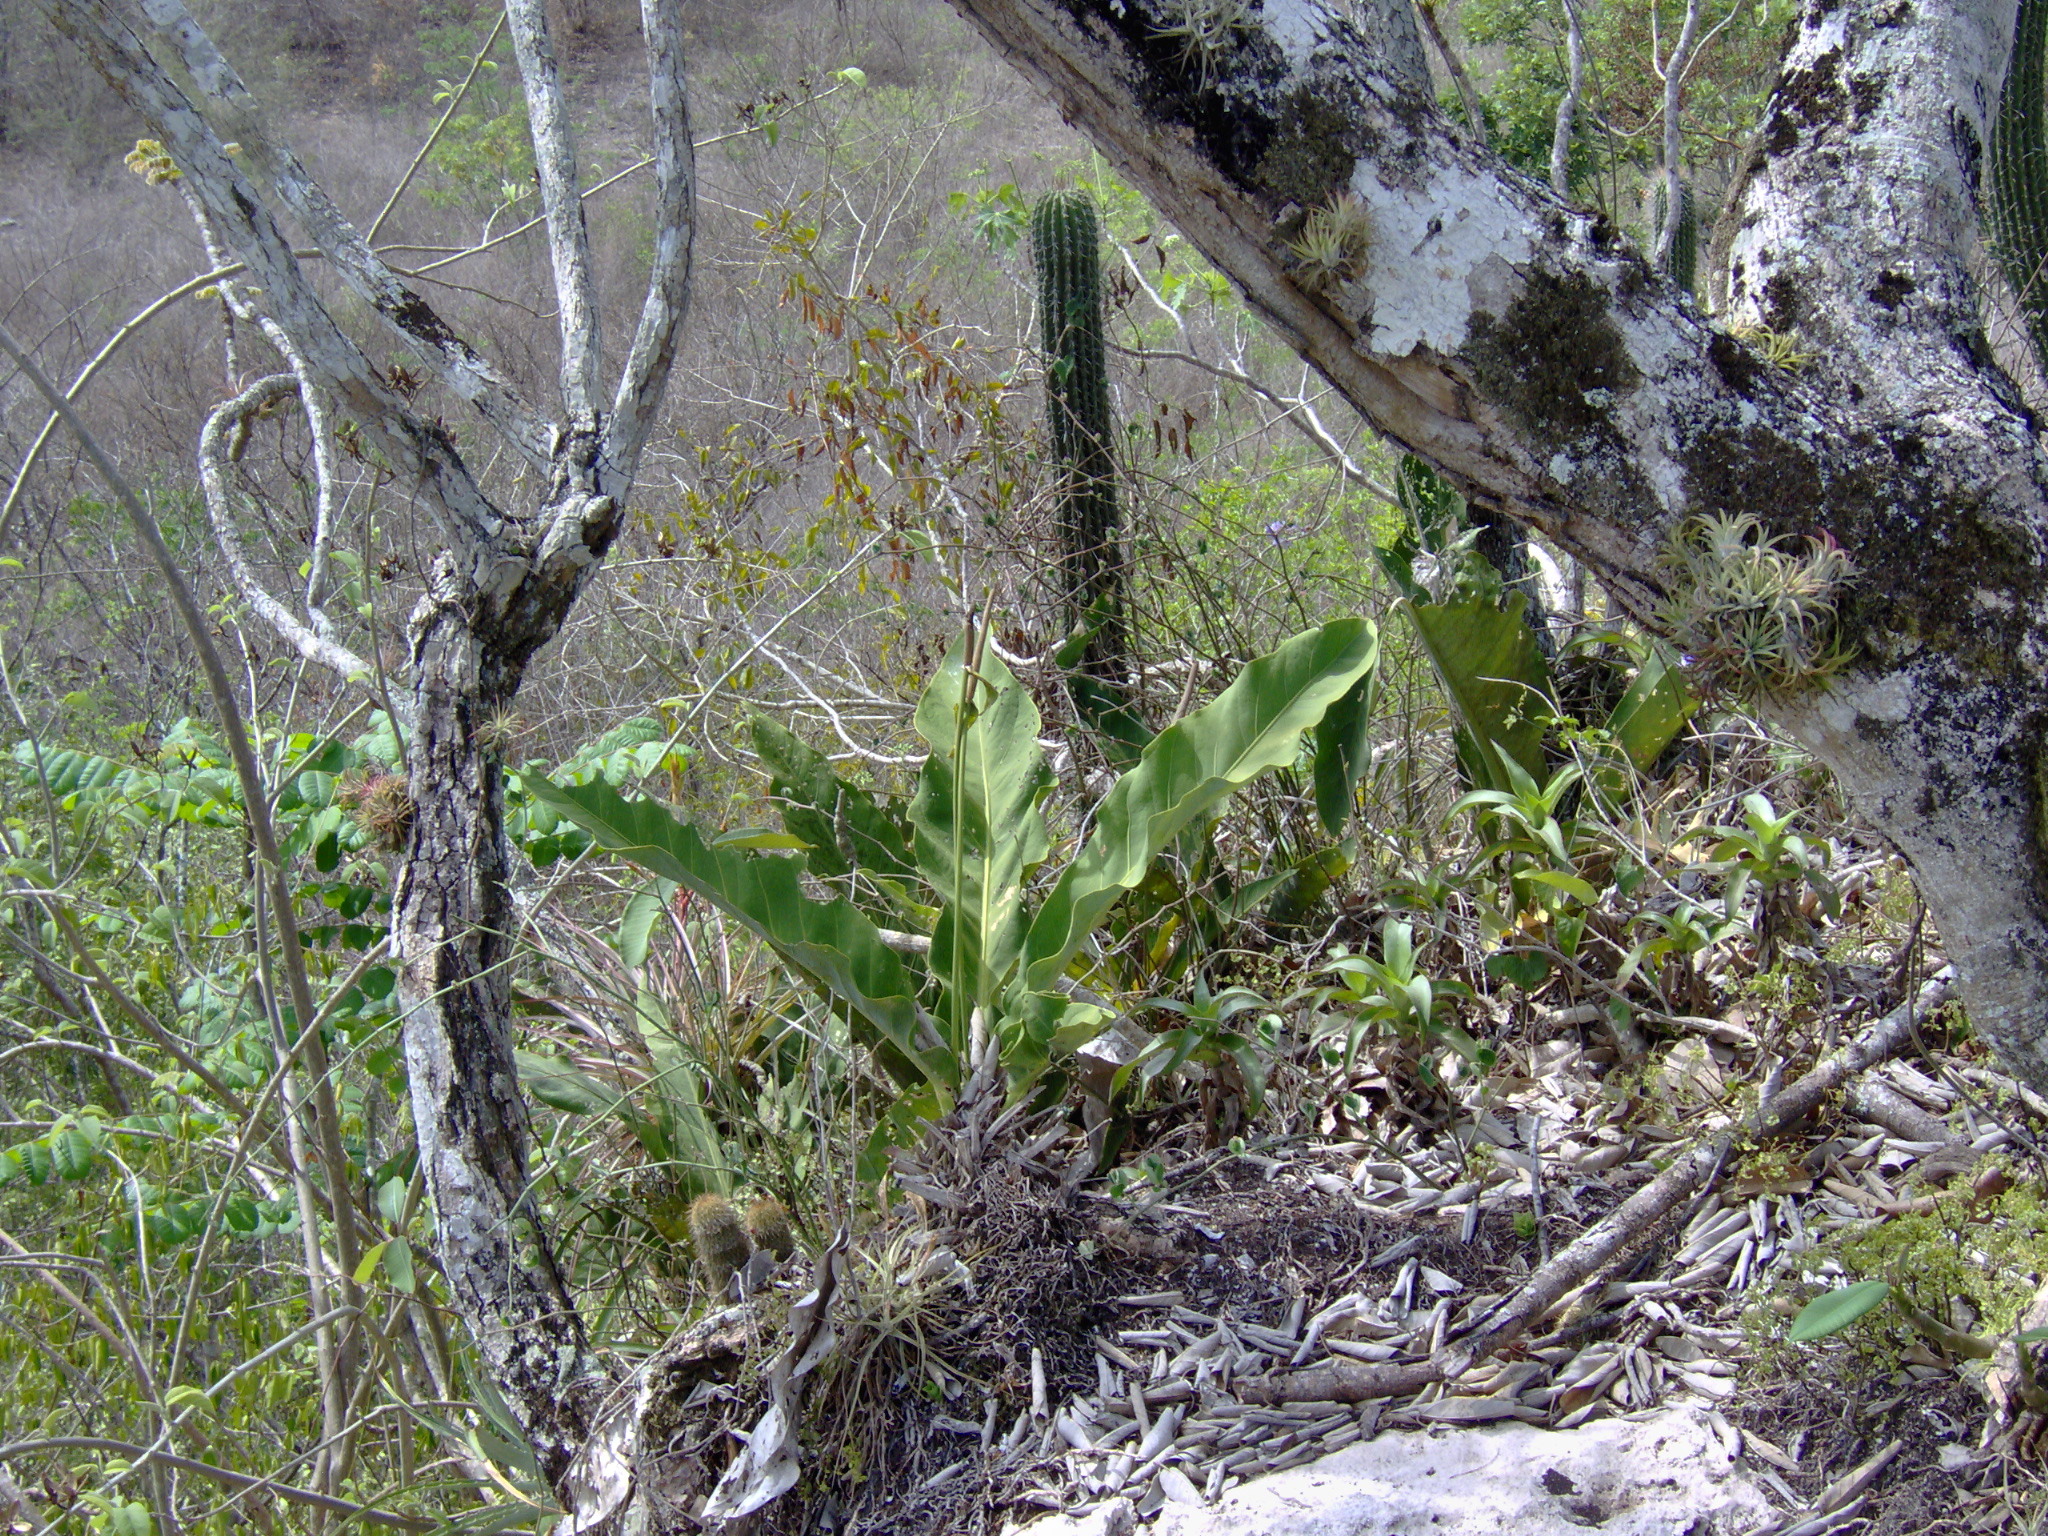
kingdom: Plantae
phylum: Tracheophyta
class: Liliopsida
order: Alismatales
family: Araceae
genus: Anthurium
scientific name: Anthurium schlechtendalii
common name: Laceleaf
